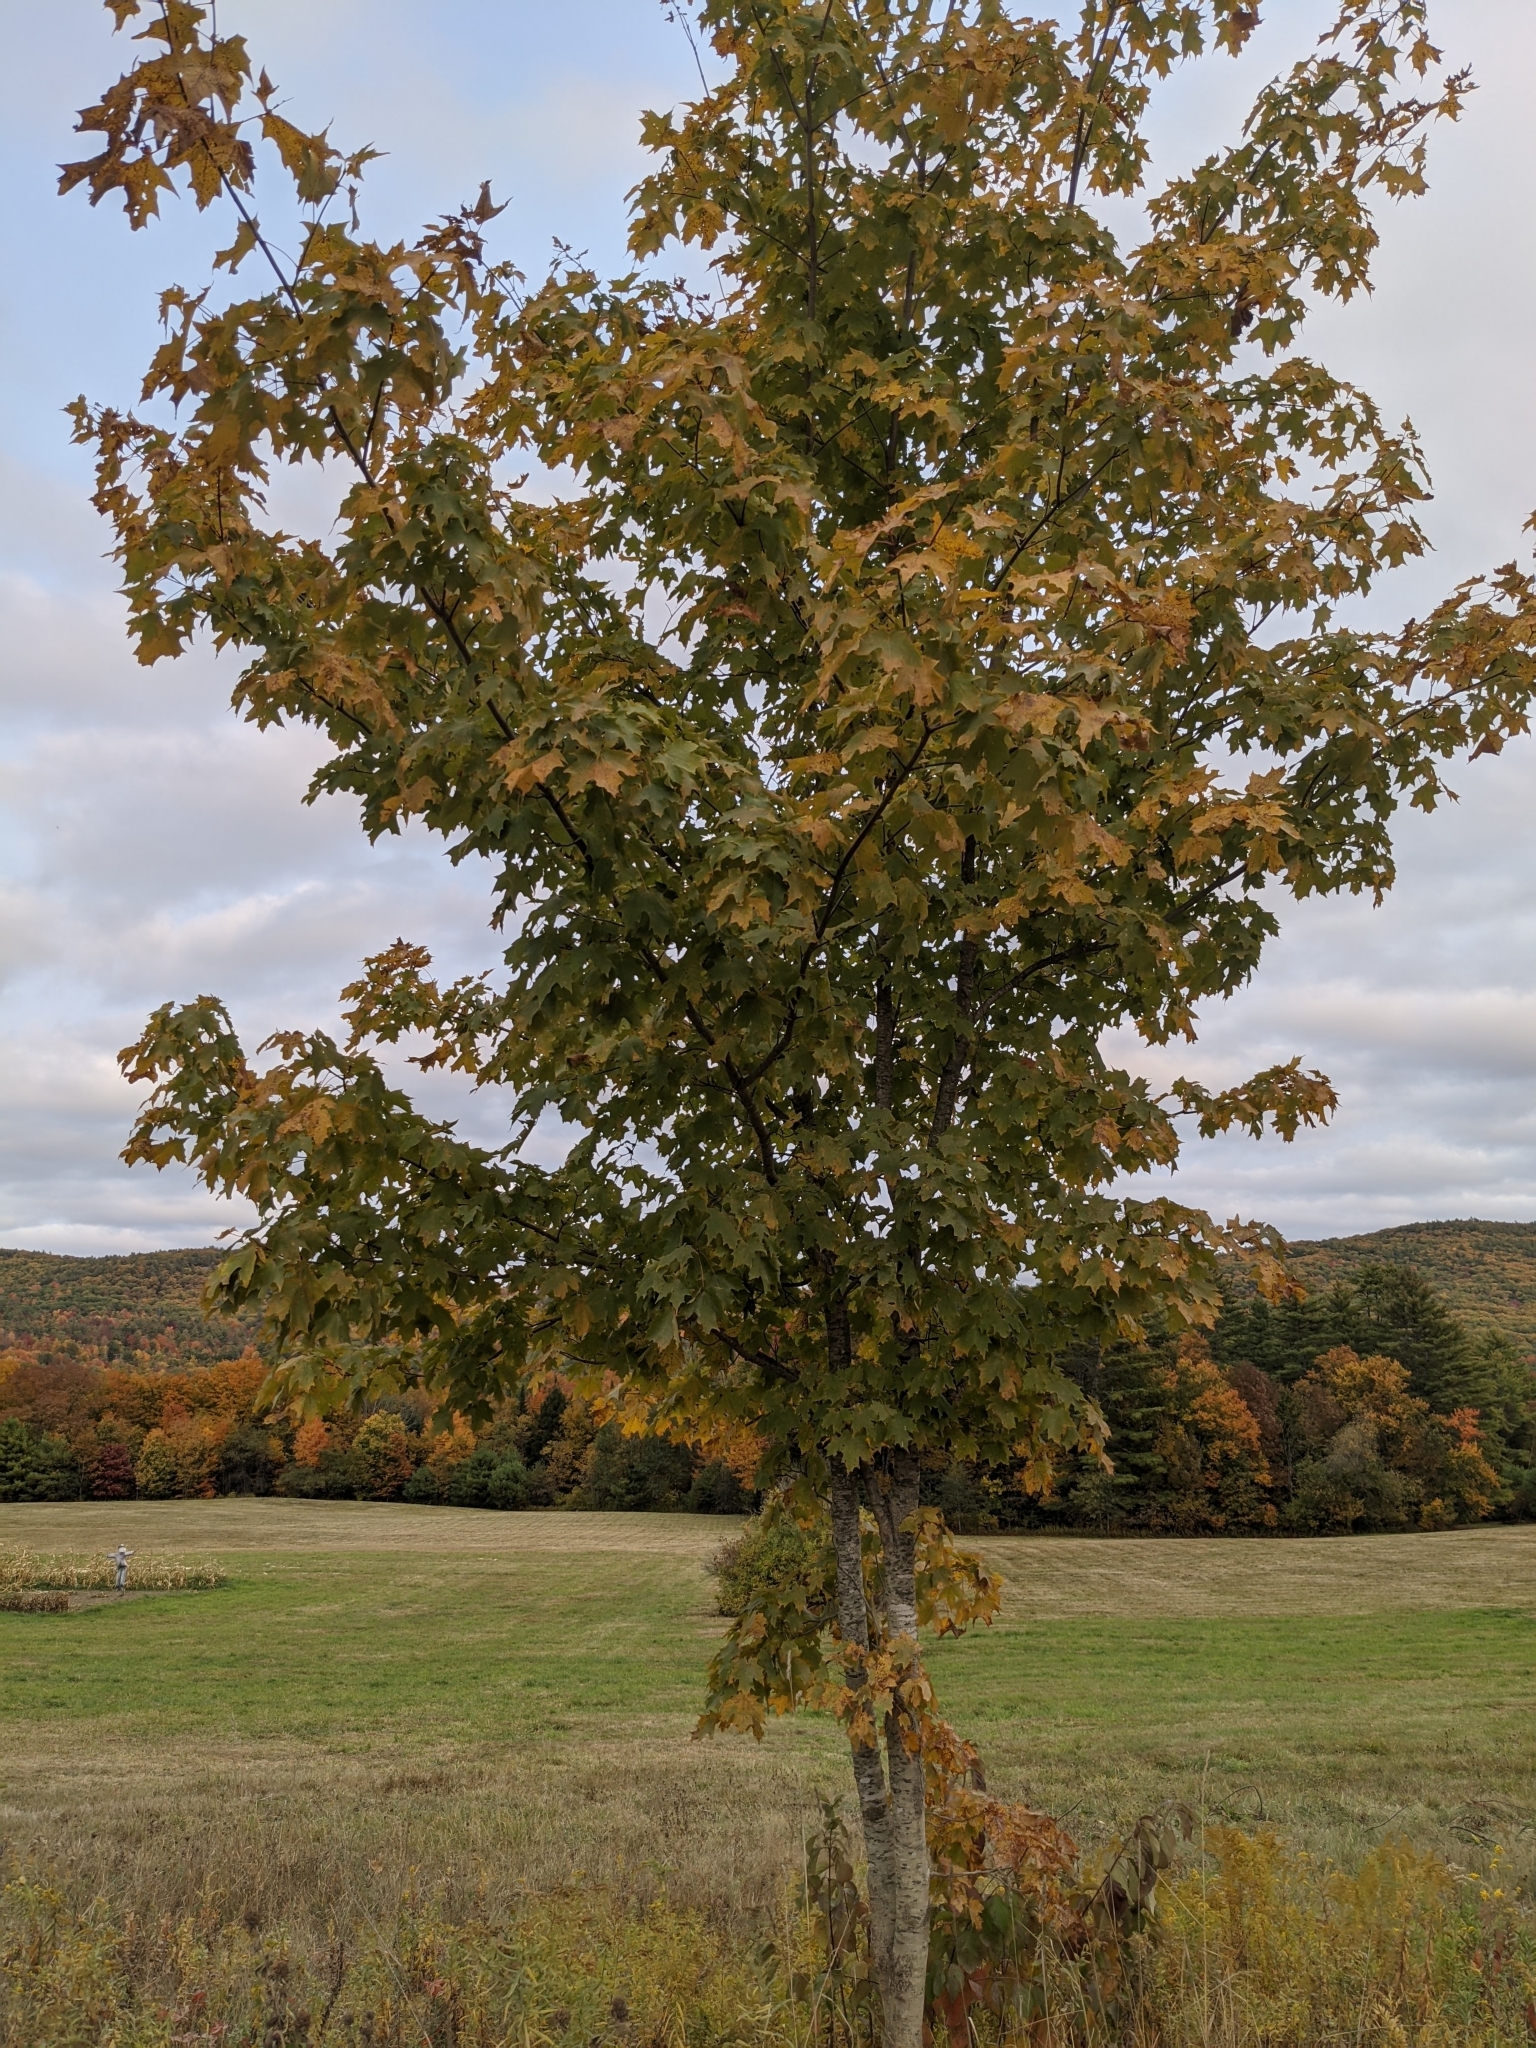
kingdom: Plantae
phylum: Tracheophyta
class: Magnoliopsida
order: Sapindales
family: Sapindaceae
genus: Acer
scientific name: Acer saccharum
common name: Sugar maple
